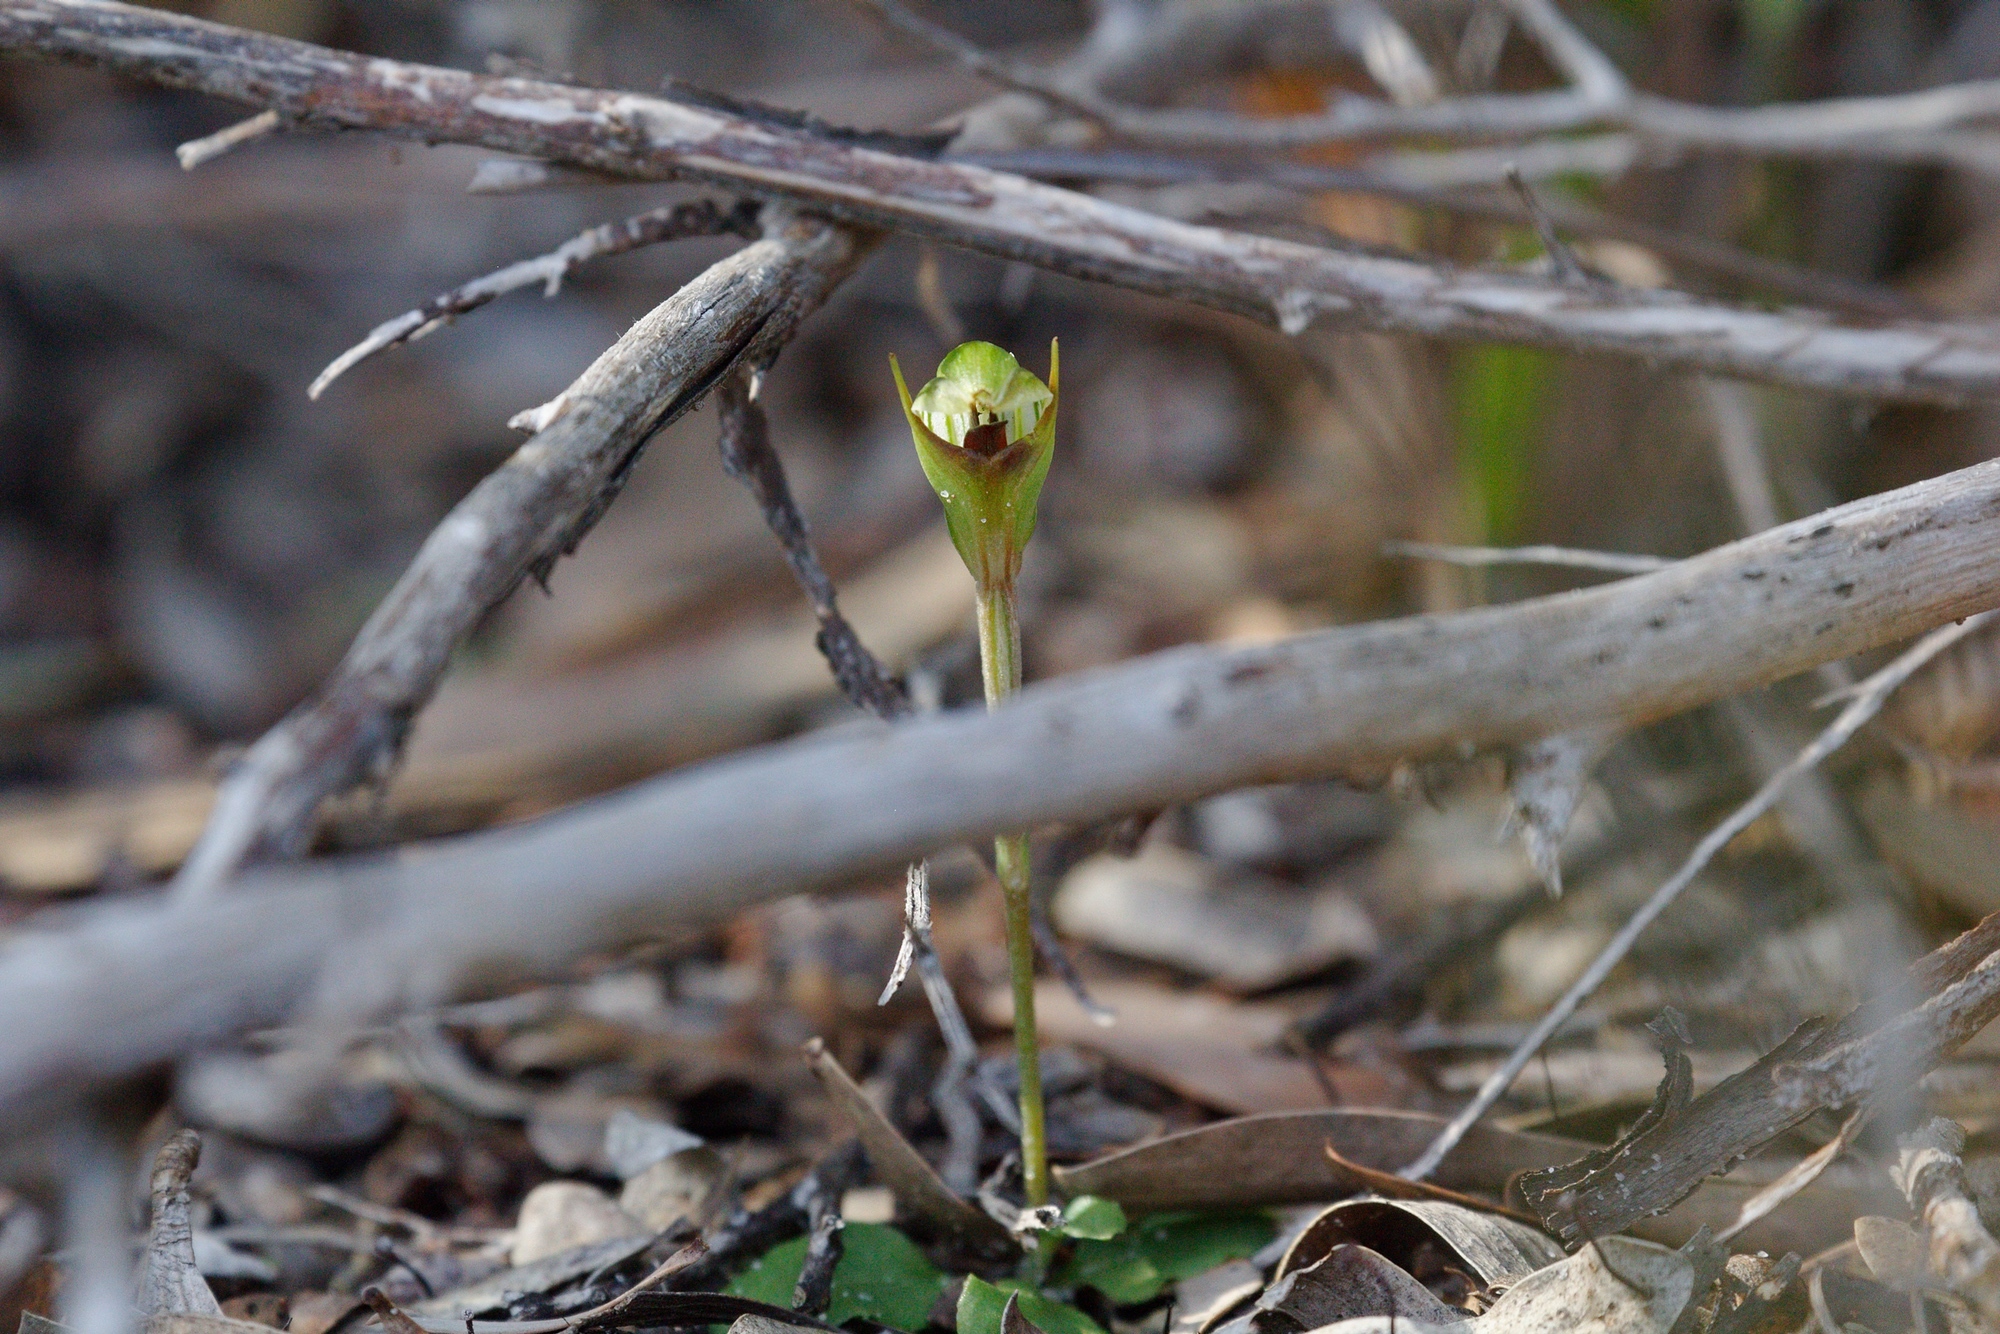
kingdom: Plantae
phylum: Tracheophyta
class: Liliopsida
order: Asparagales
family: Orchidaceae
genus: Pterostylis
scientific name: Pterostylis concinna
